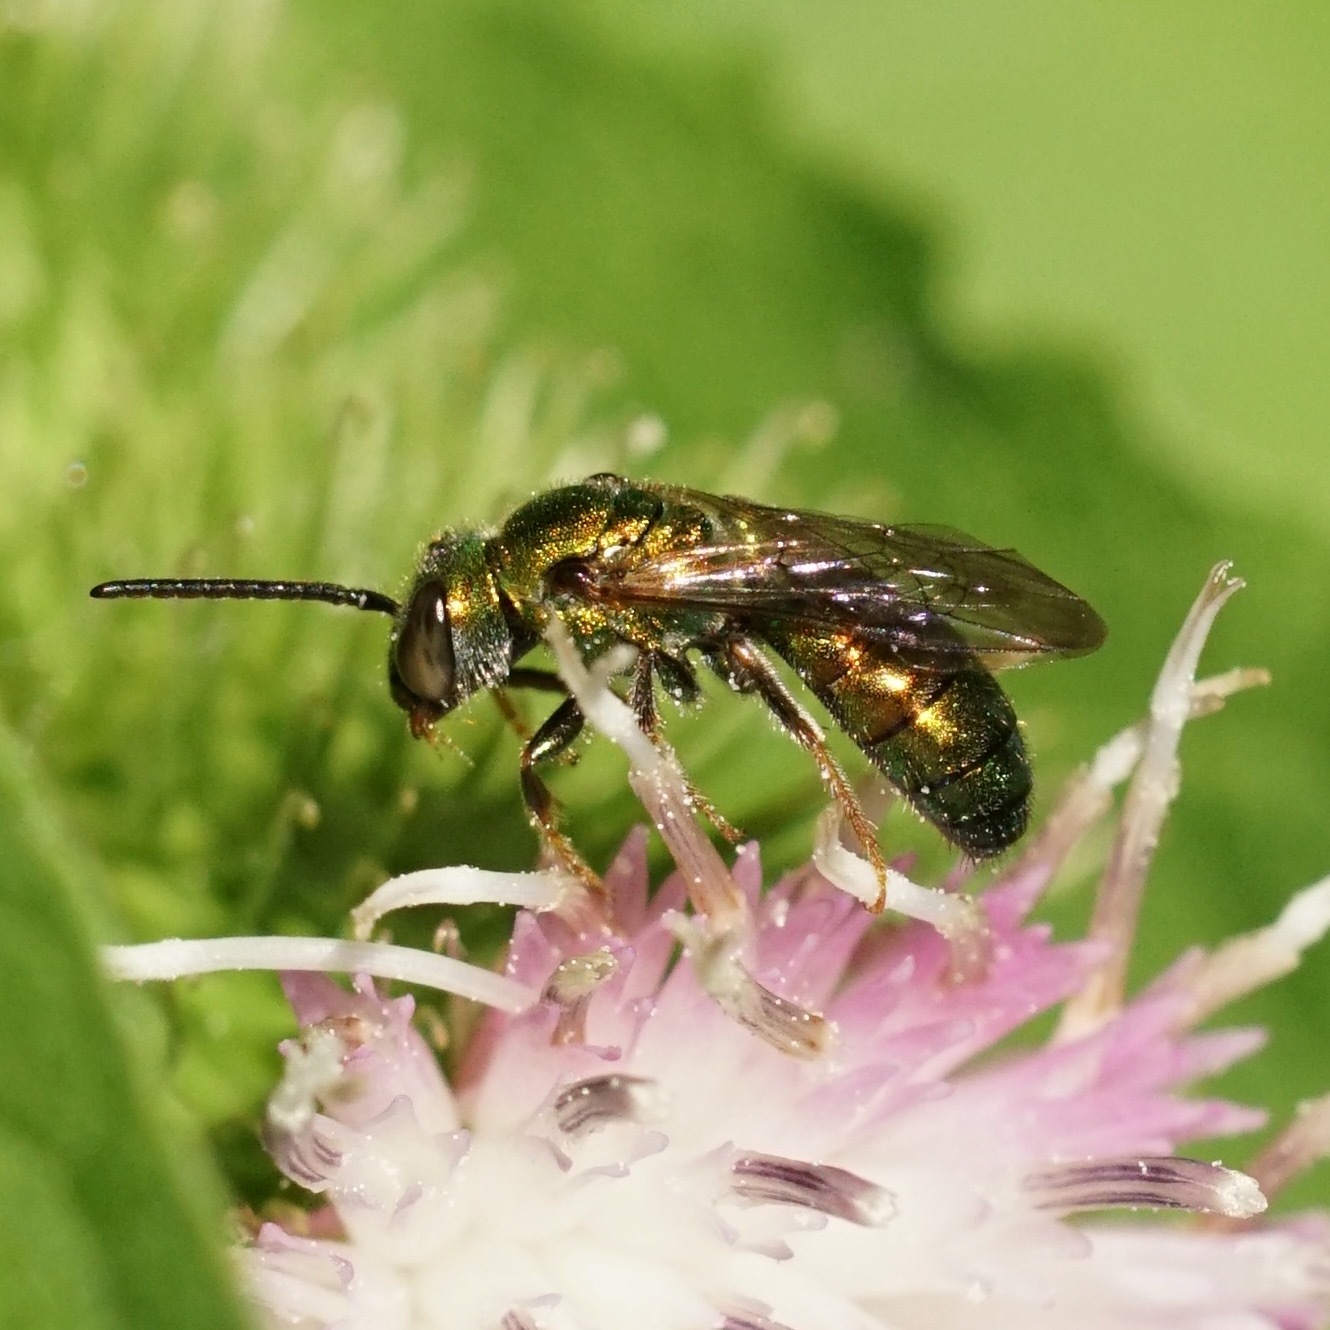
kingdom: Animalia
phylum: Arthropoda
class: Insecta
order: Hymenoptera
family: Halictidae
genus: Augochlora
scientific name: Augochlora pura
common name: Pure green sweat bee
